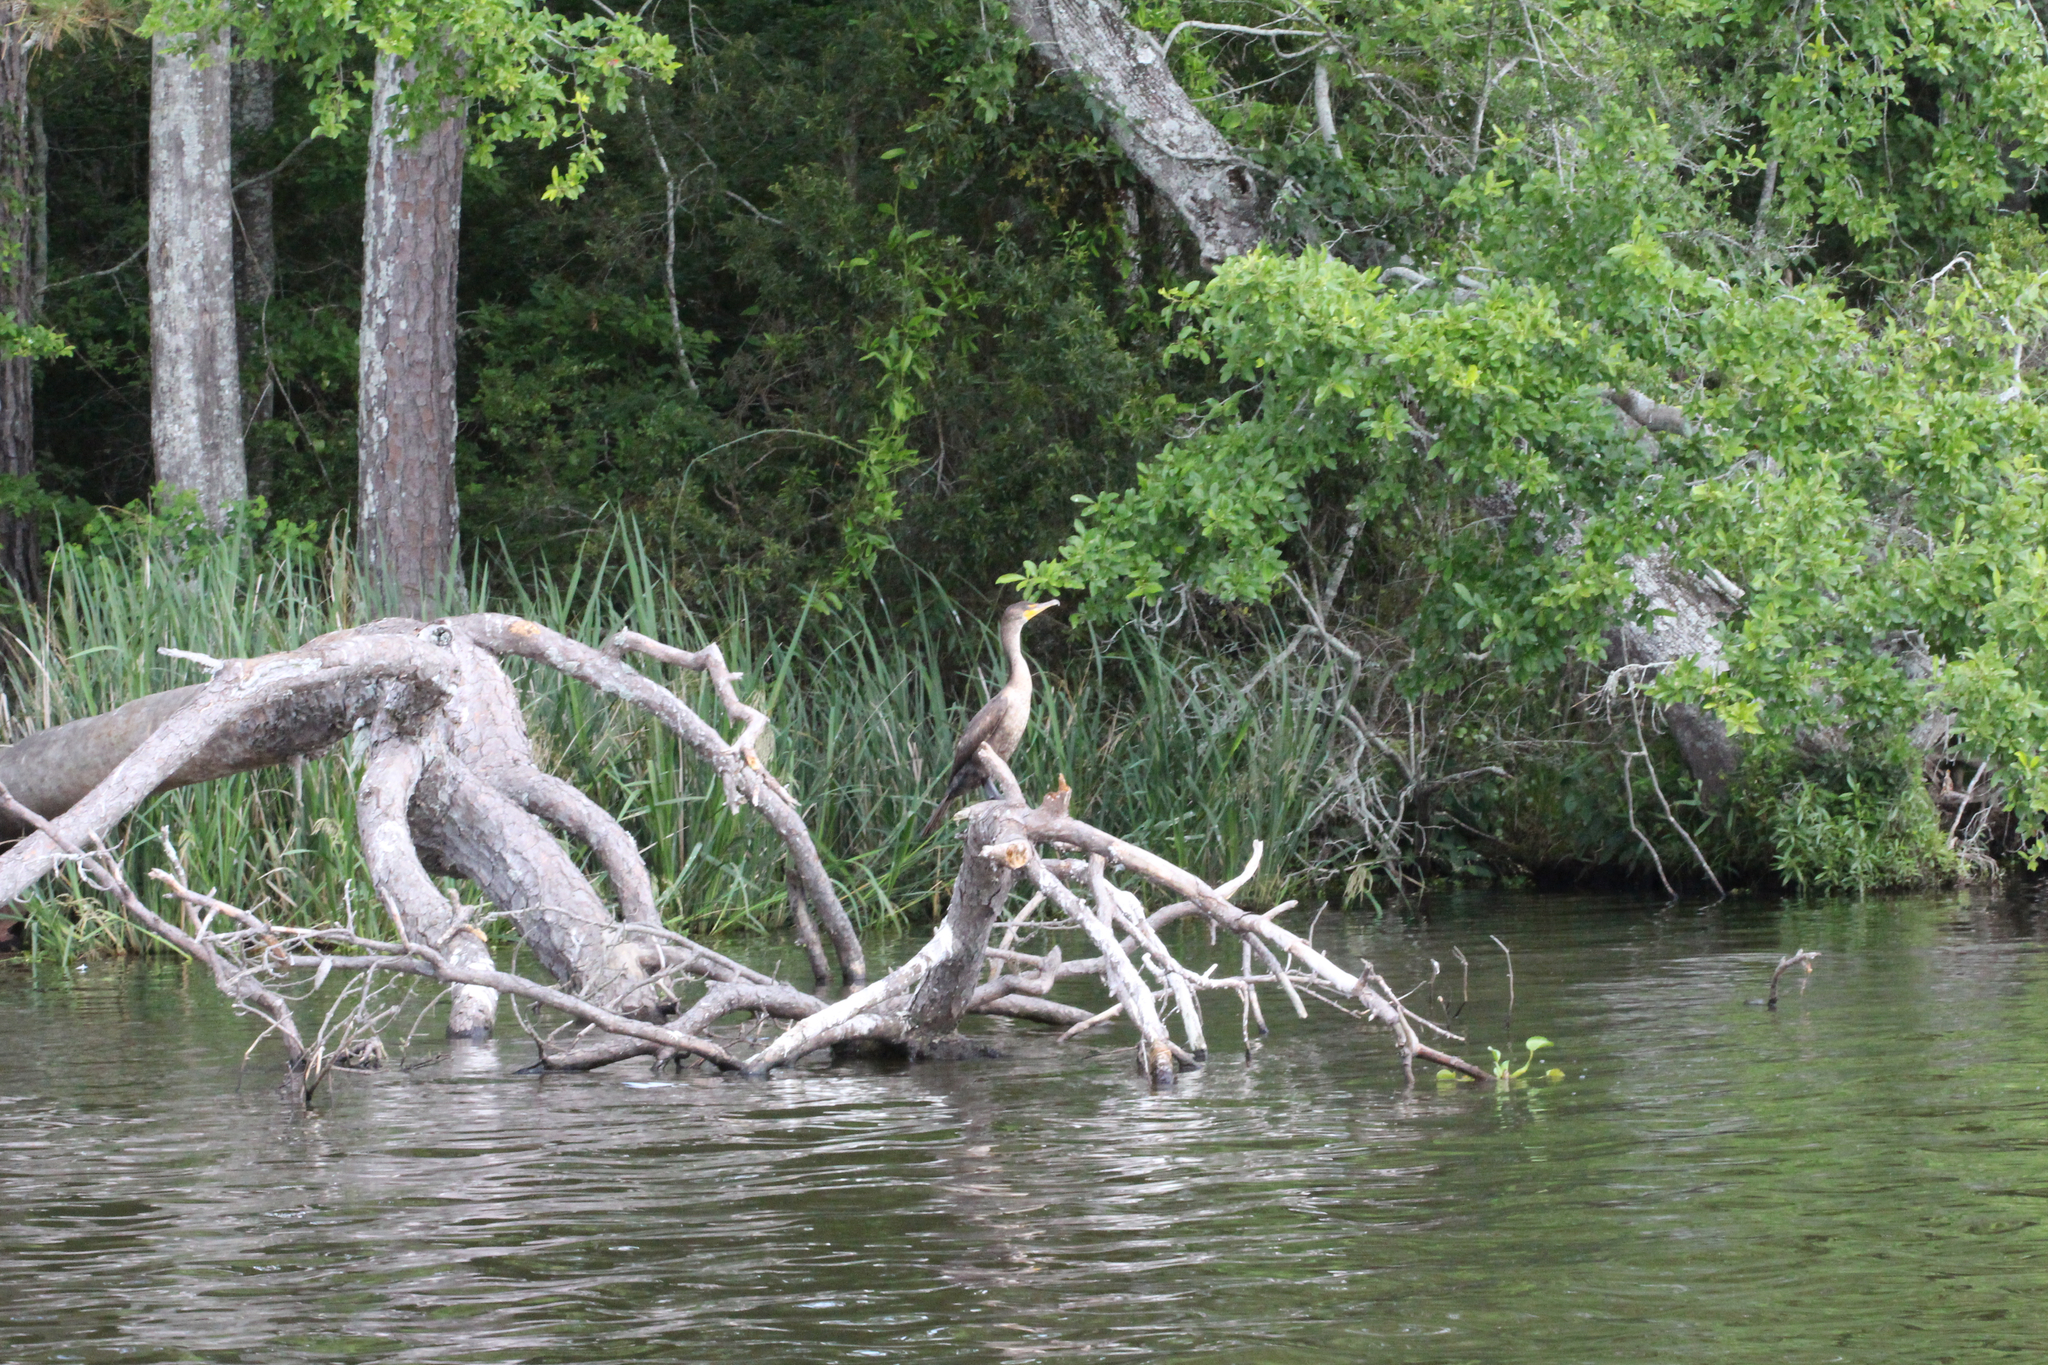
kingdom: Animalia
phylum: Chordata
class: Aves
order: Suliformes
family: Phalacrocoracidae
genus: Phalacrocorax
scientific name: Phalacrocorax auritus
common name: Double-crested cormorant
